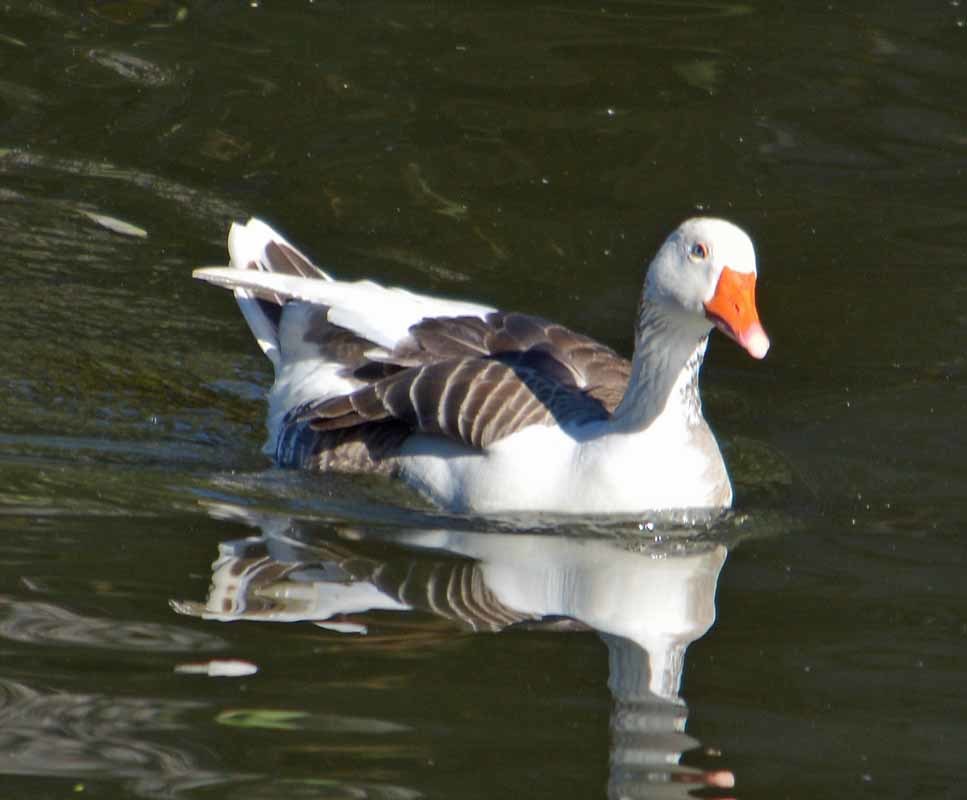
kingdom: Animalia
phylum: Chordata
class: Aves
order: Anseriformes
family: Anatidae
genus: Anser
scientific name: Anser anser
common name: Greylag goose
